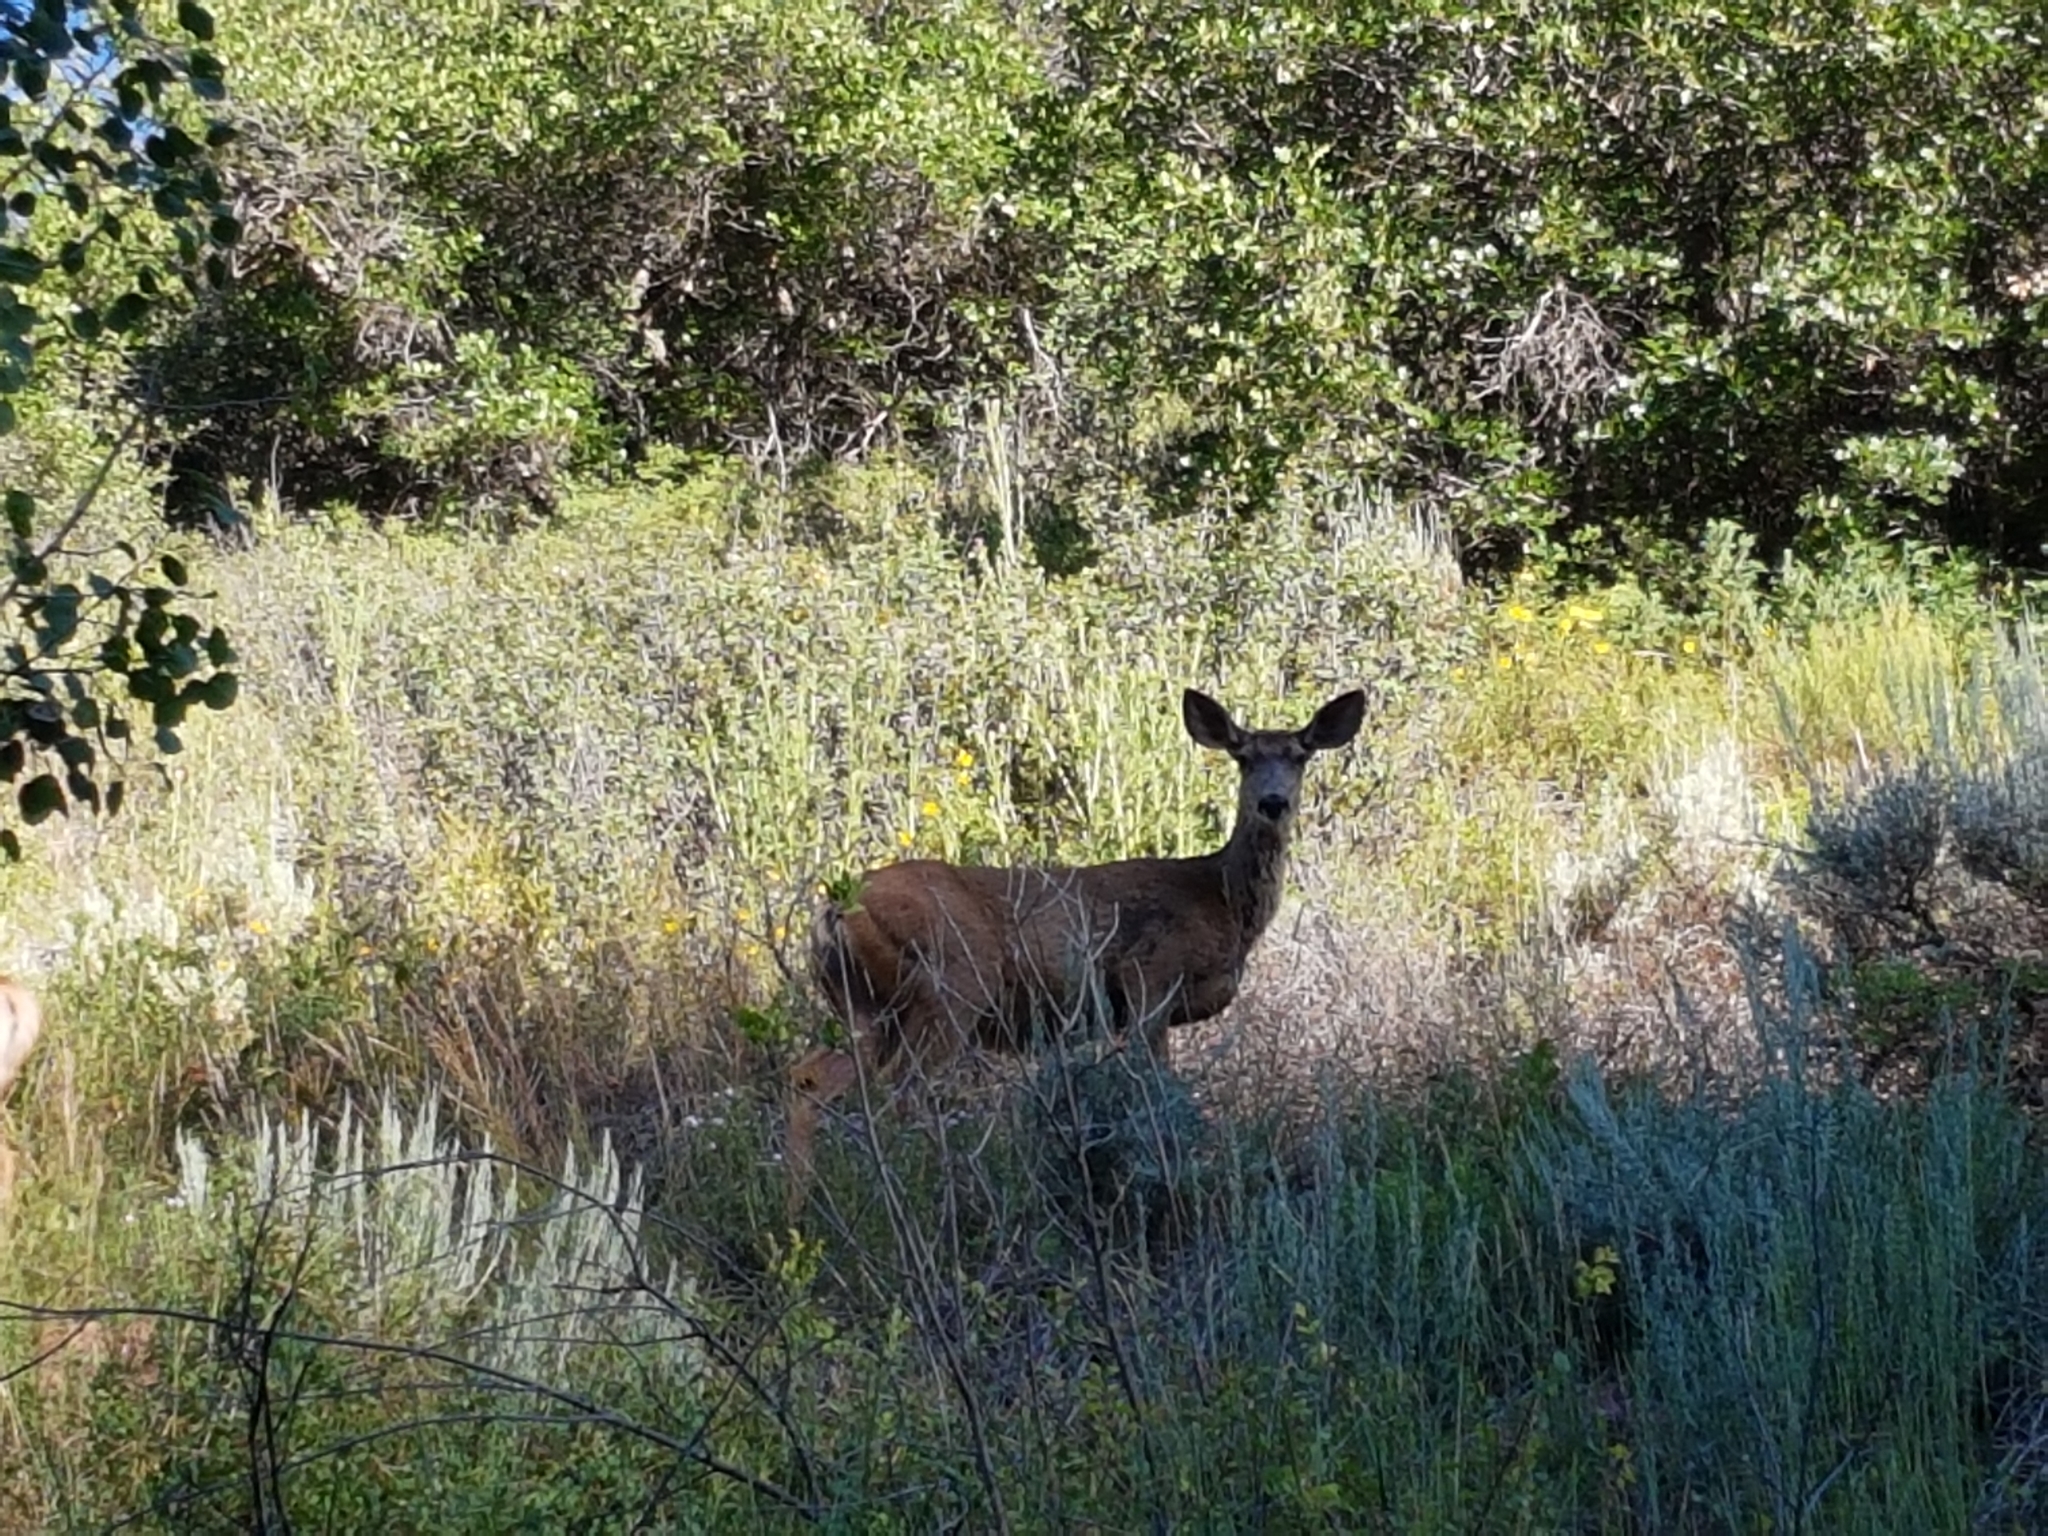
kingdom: Animalia
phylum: Chordata
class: Mammalia
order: Artiodactyla
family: Cervidae
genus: Odocoileus
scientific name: Odocoileus hemionus
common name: Mule deer
